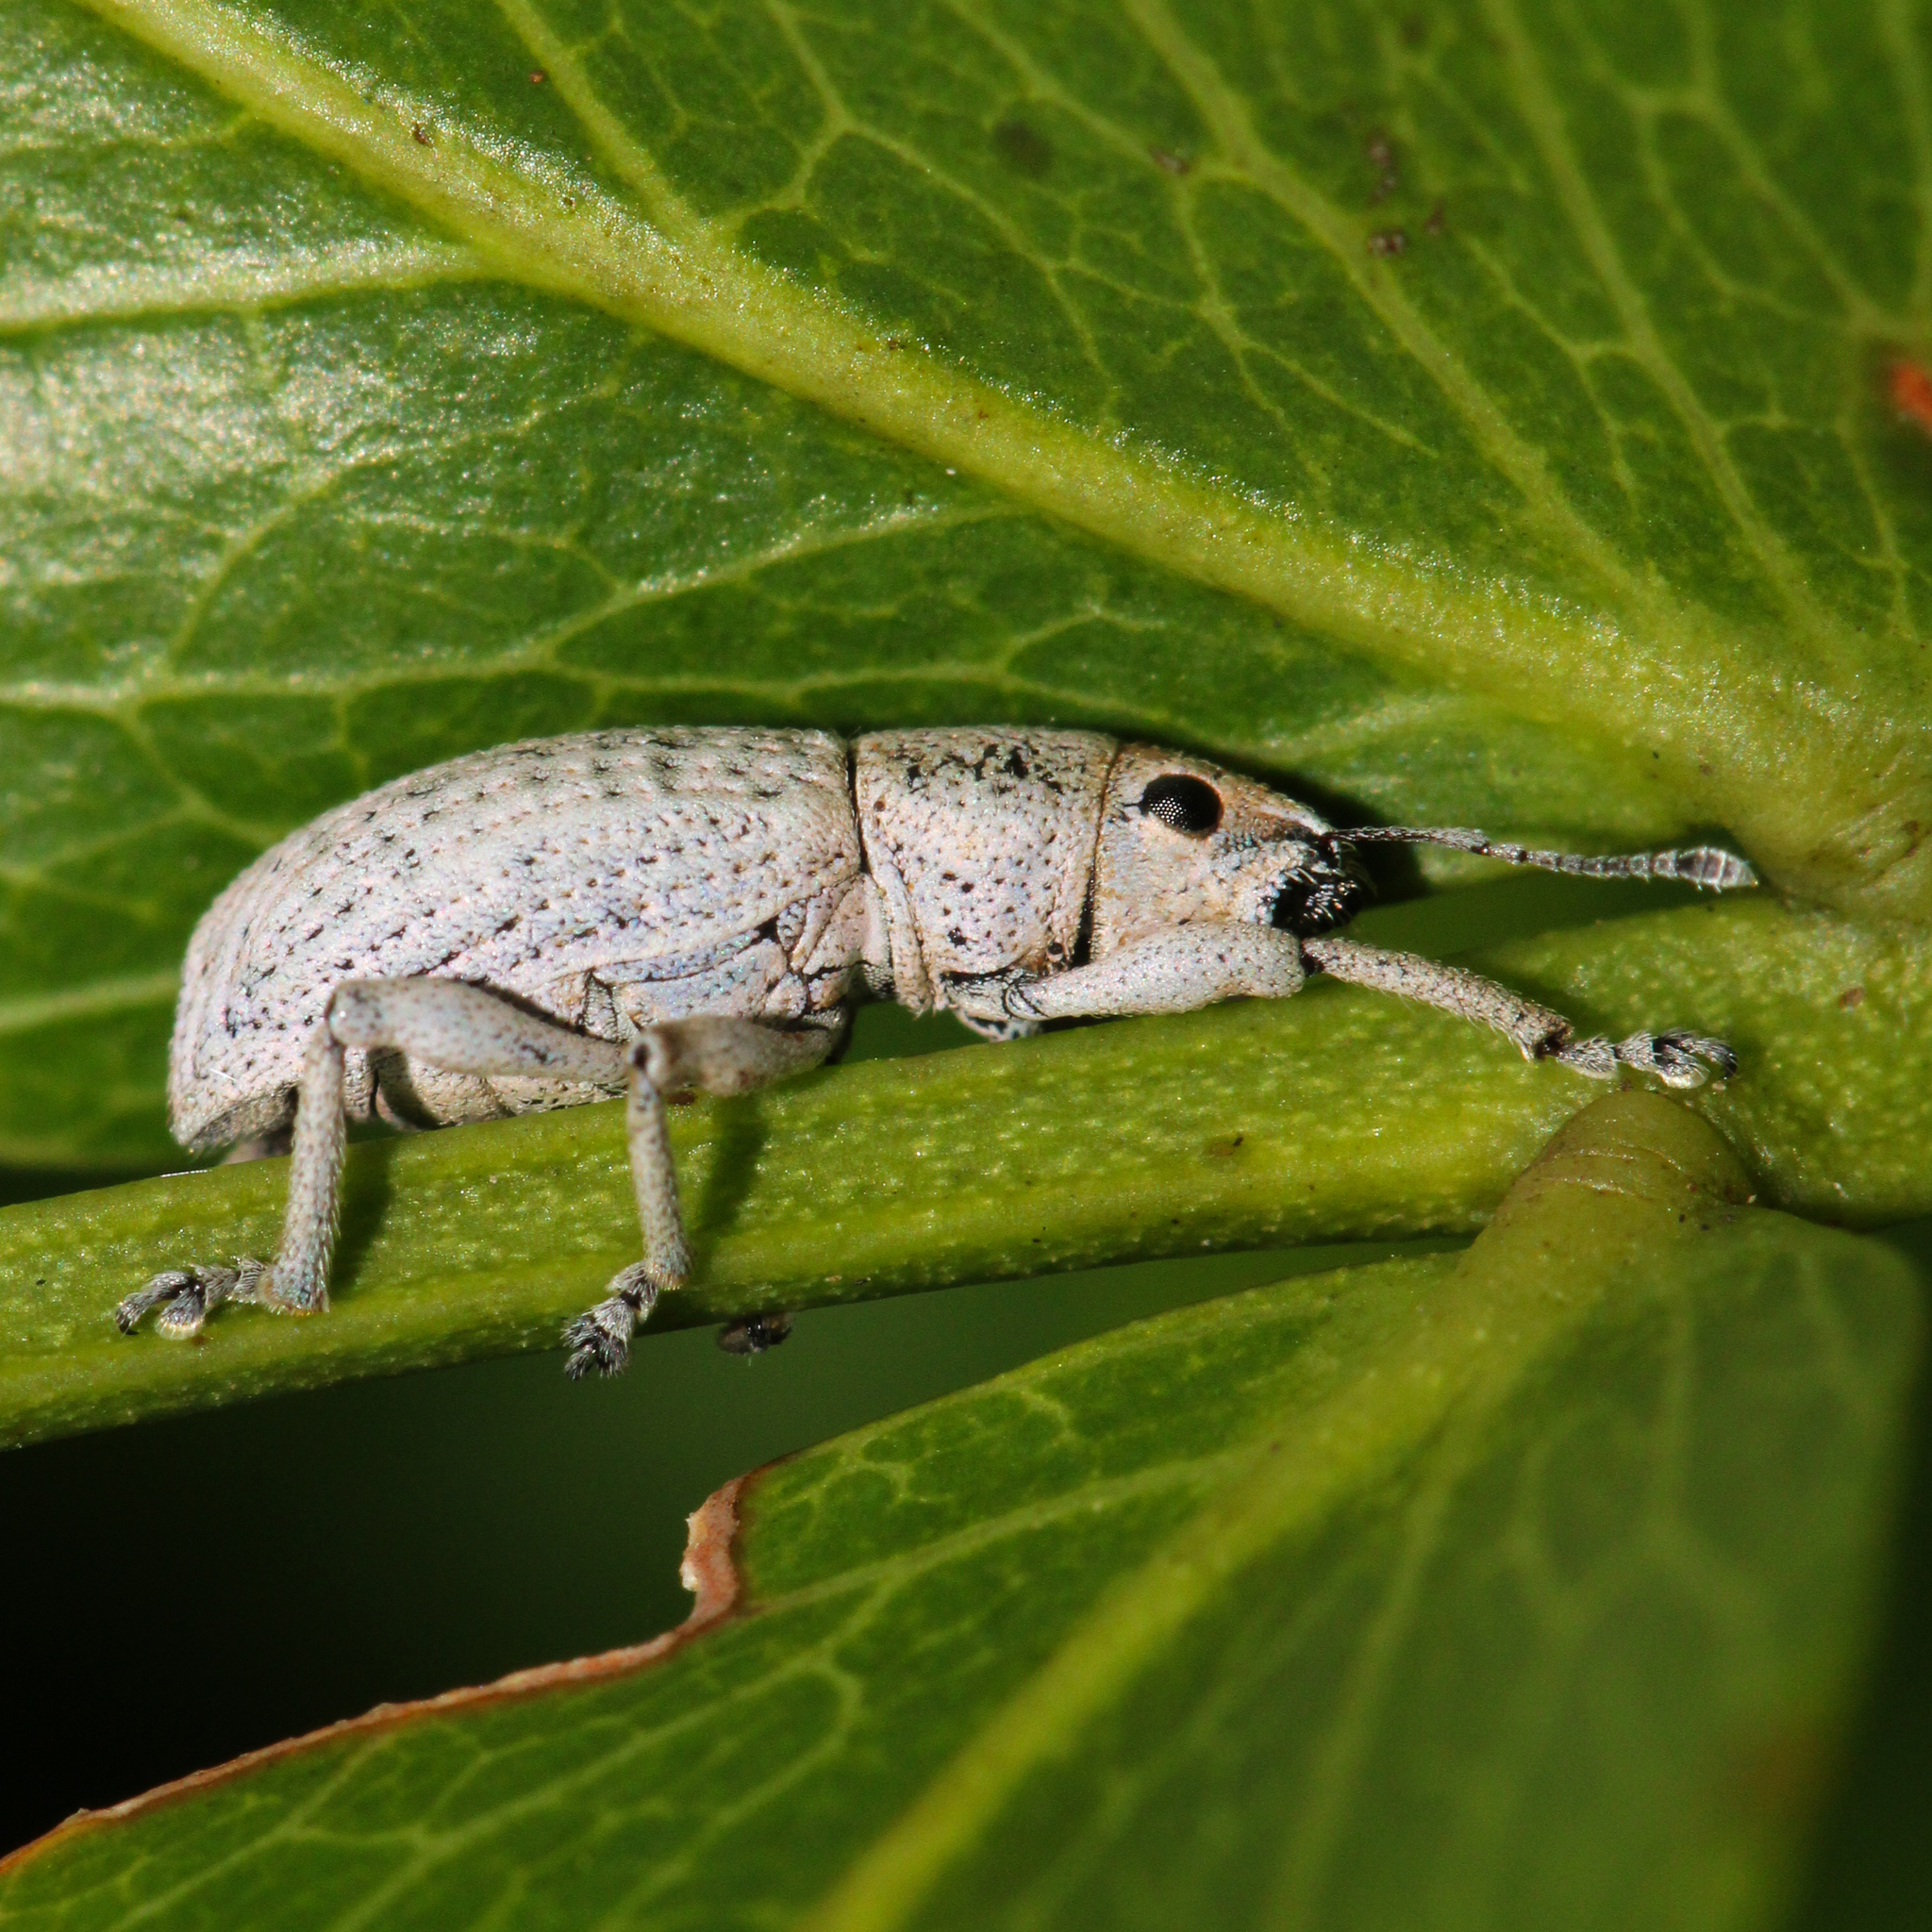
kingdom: Animalia
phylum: Arthropoda
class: Insecta
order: Coleoptera
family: Curculionidae
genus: Artipus
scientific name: Artipus floridanus
